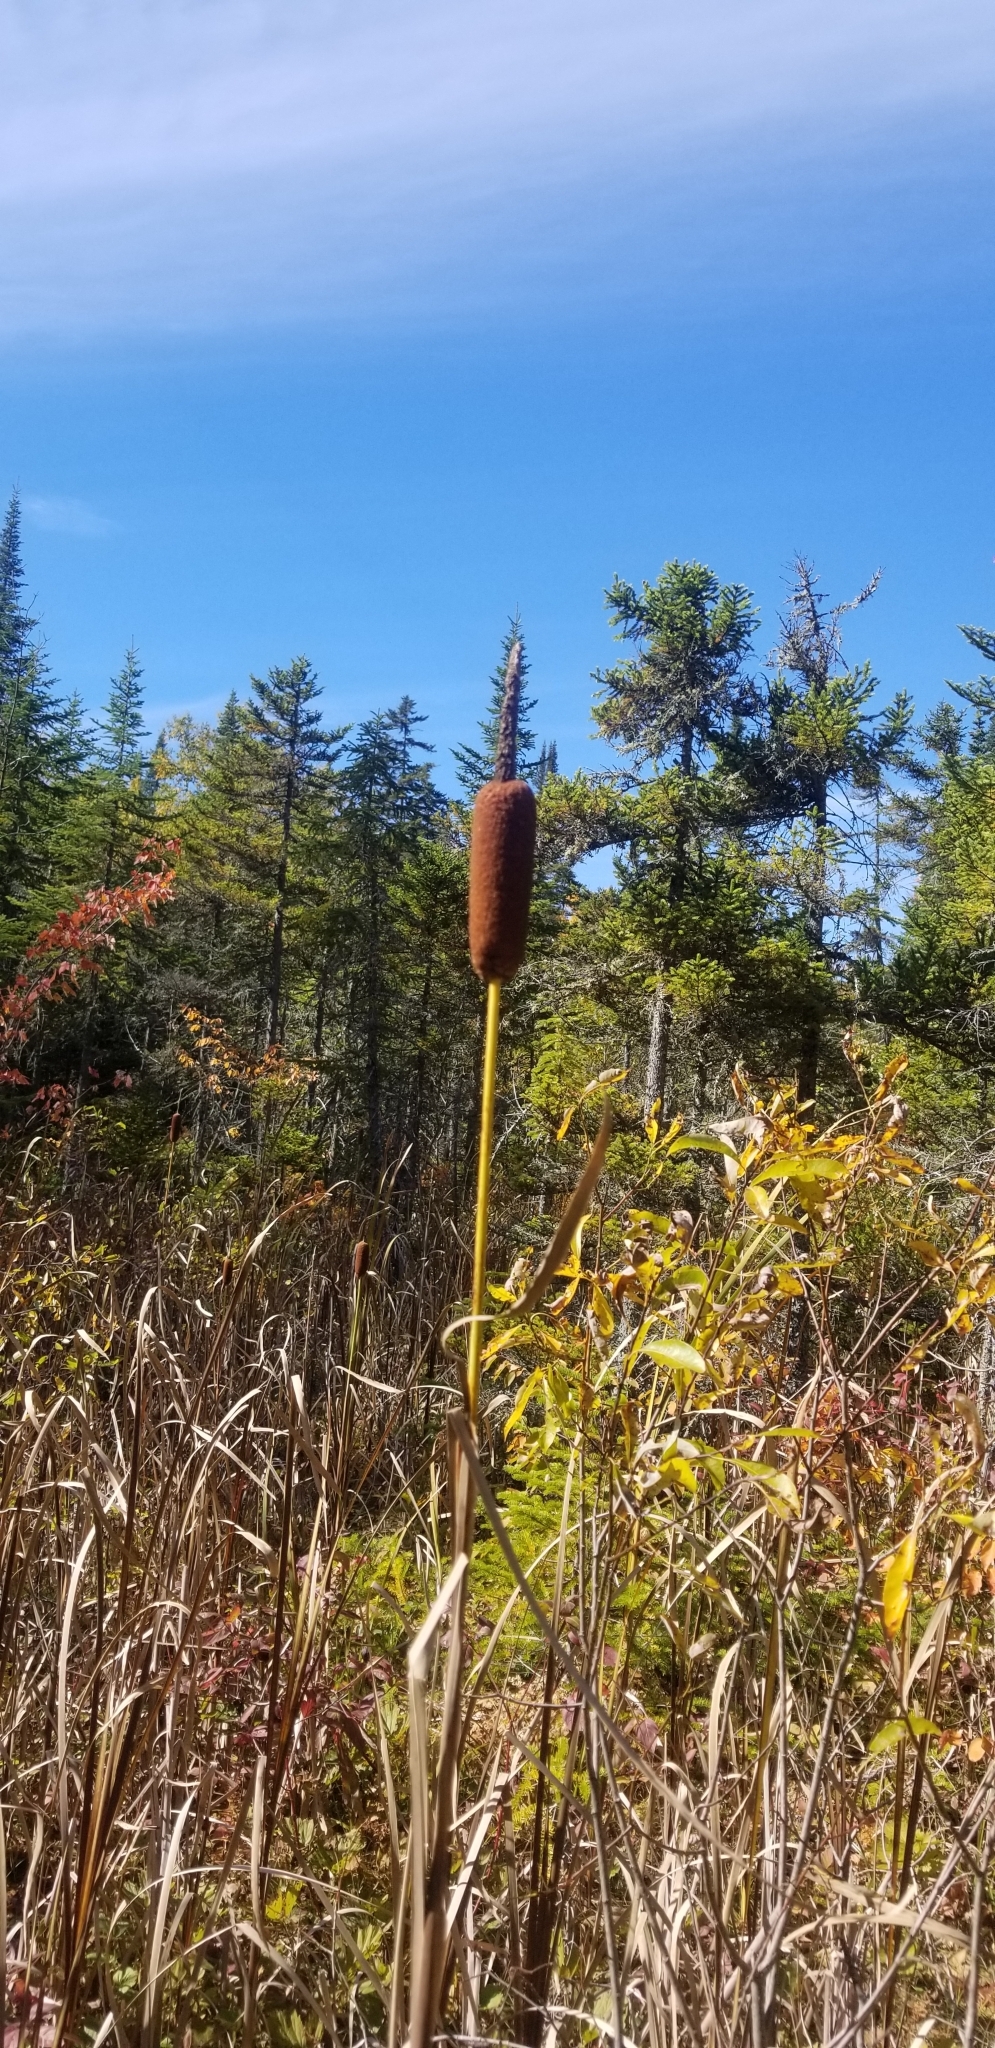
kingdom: Plantae
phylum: Tracheophyta
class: Liliopsida
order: Poales
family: Typhaceae
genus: Typha
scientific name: Typha latifolia
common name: Broadleaf cattail
